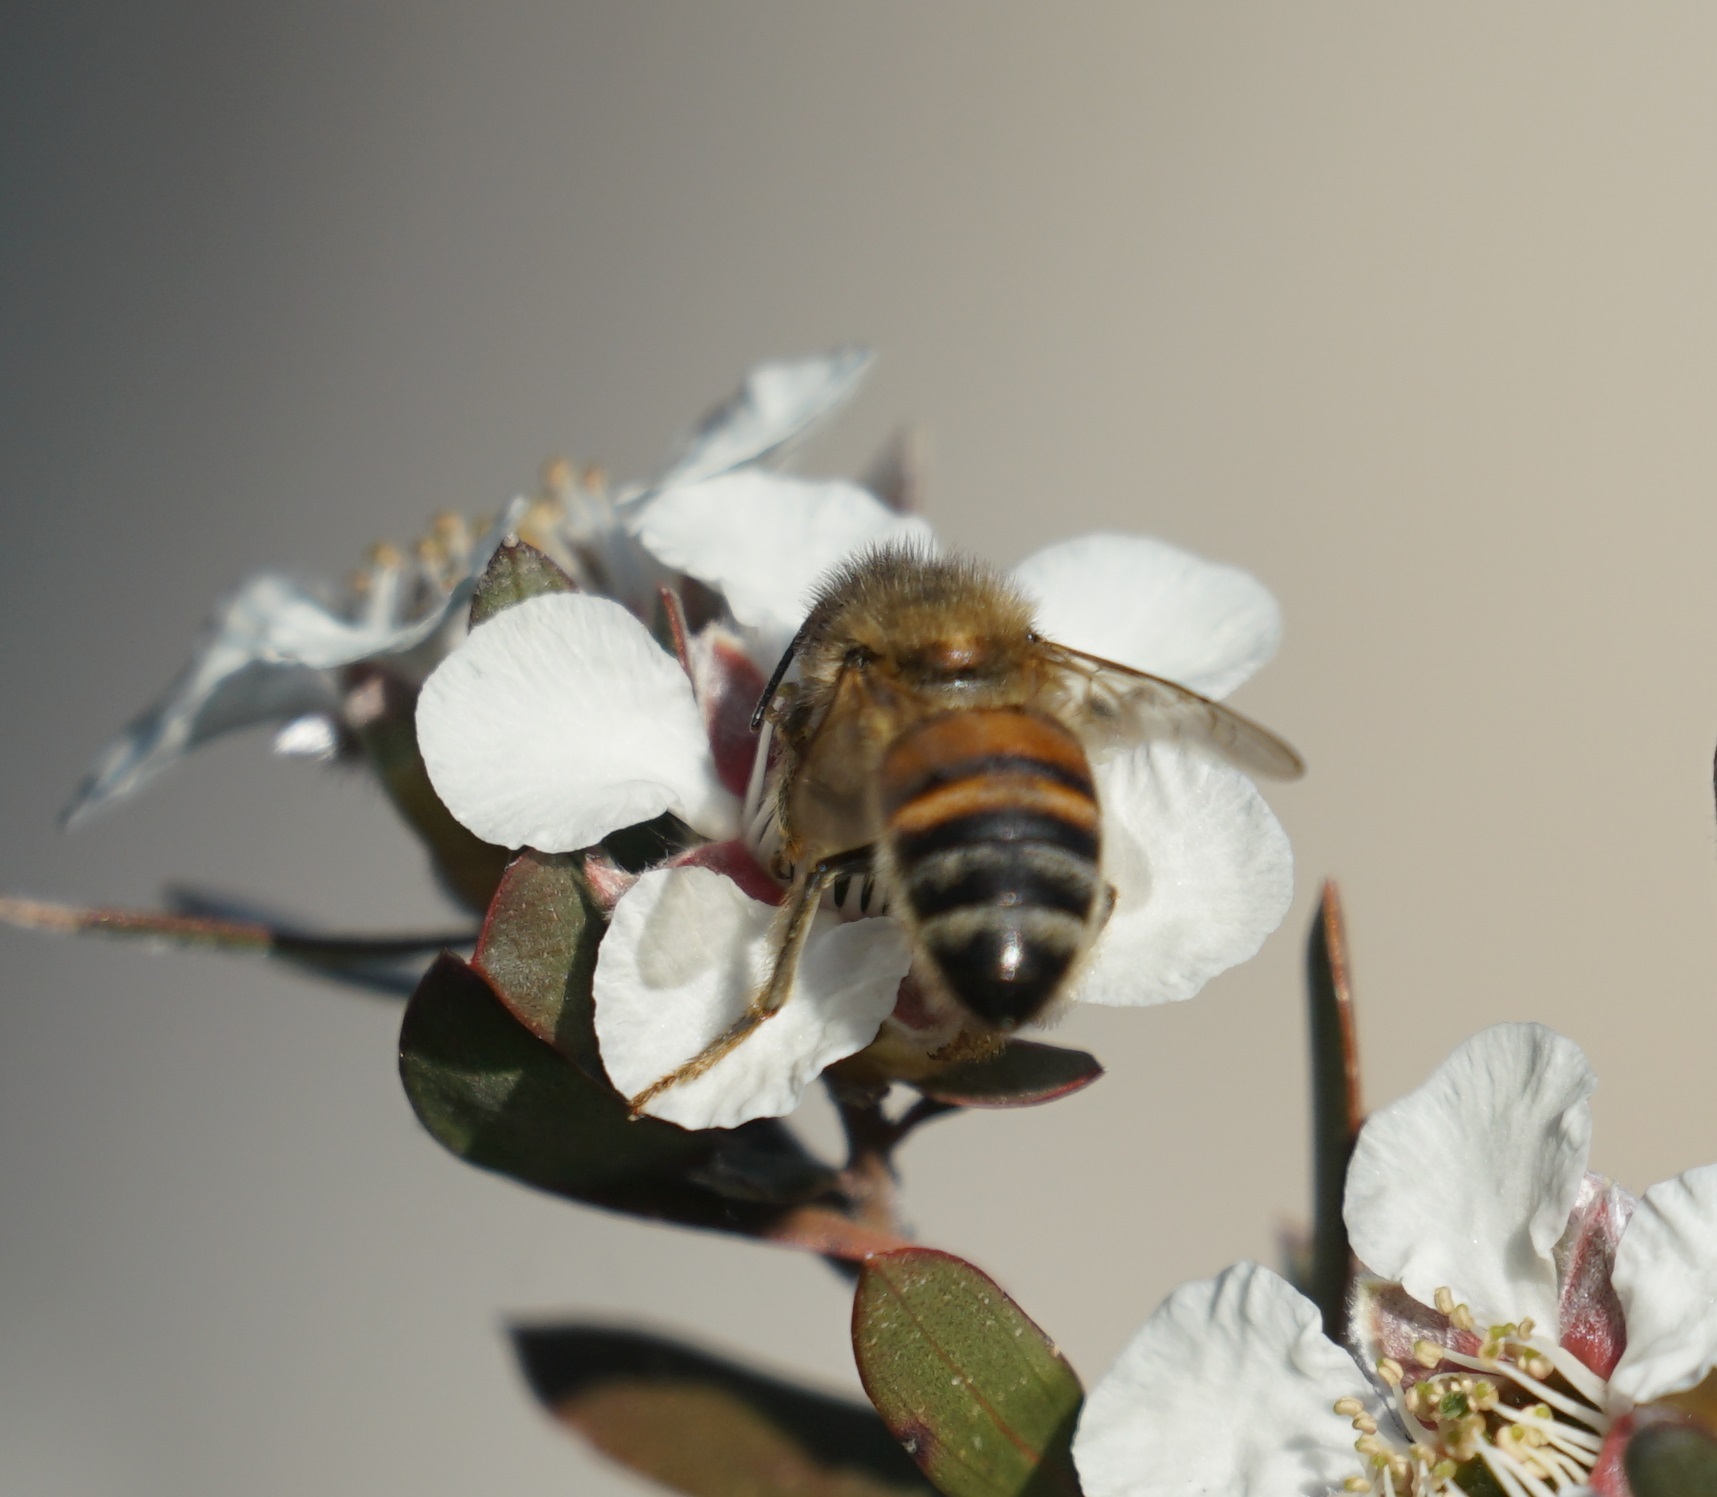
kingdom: Animalia
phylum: Arthropoda
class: Insecta
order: Hymenoptera
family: Apidae
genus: Apis
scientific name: Apis mellifera
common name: Honey bee
